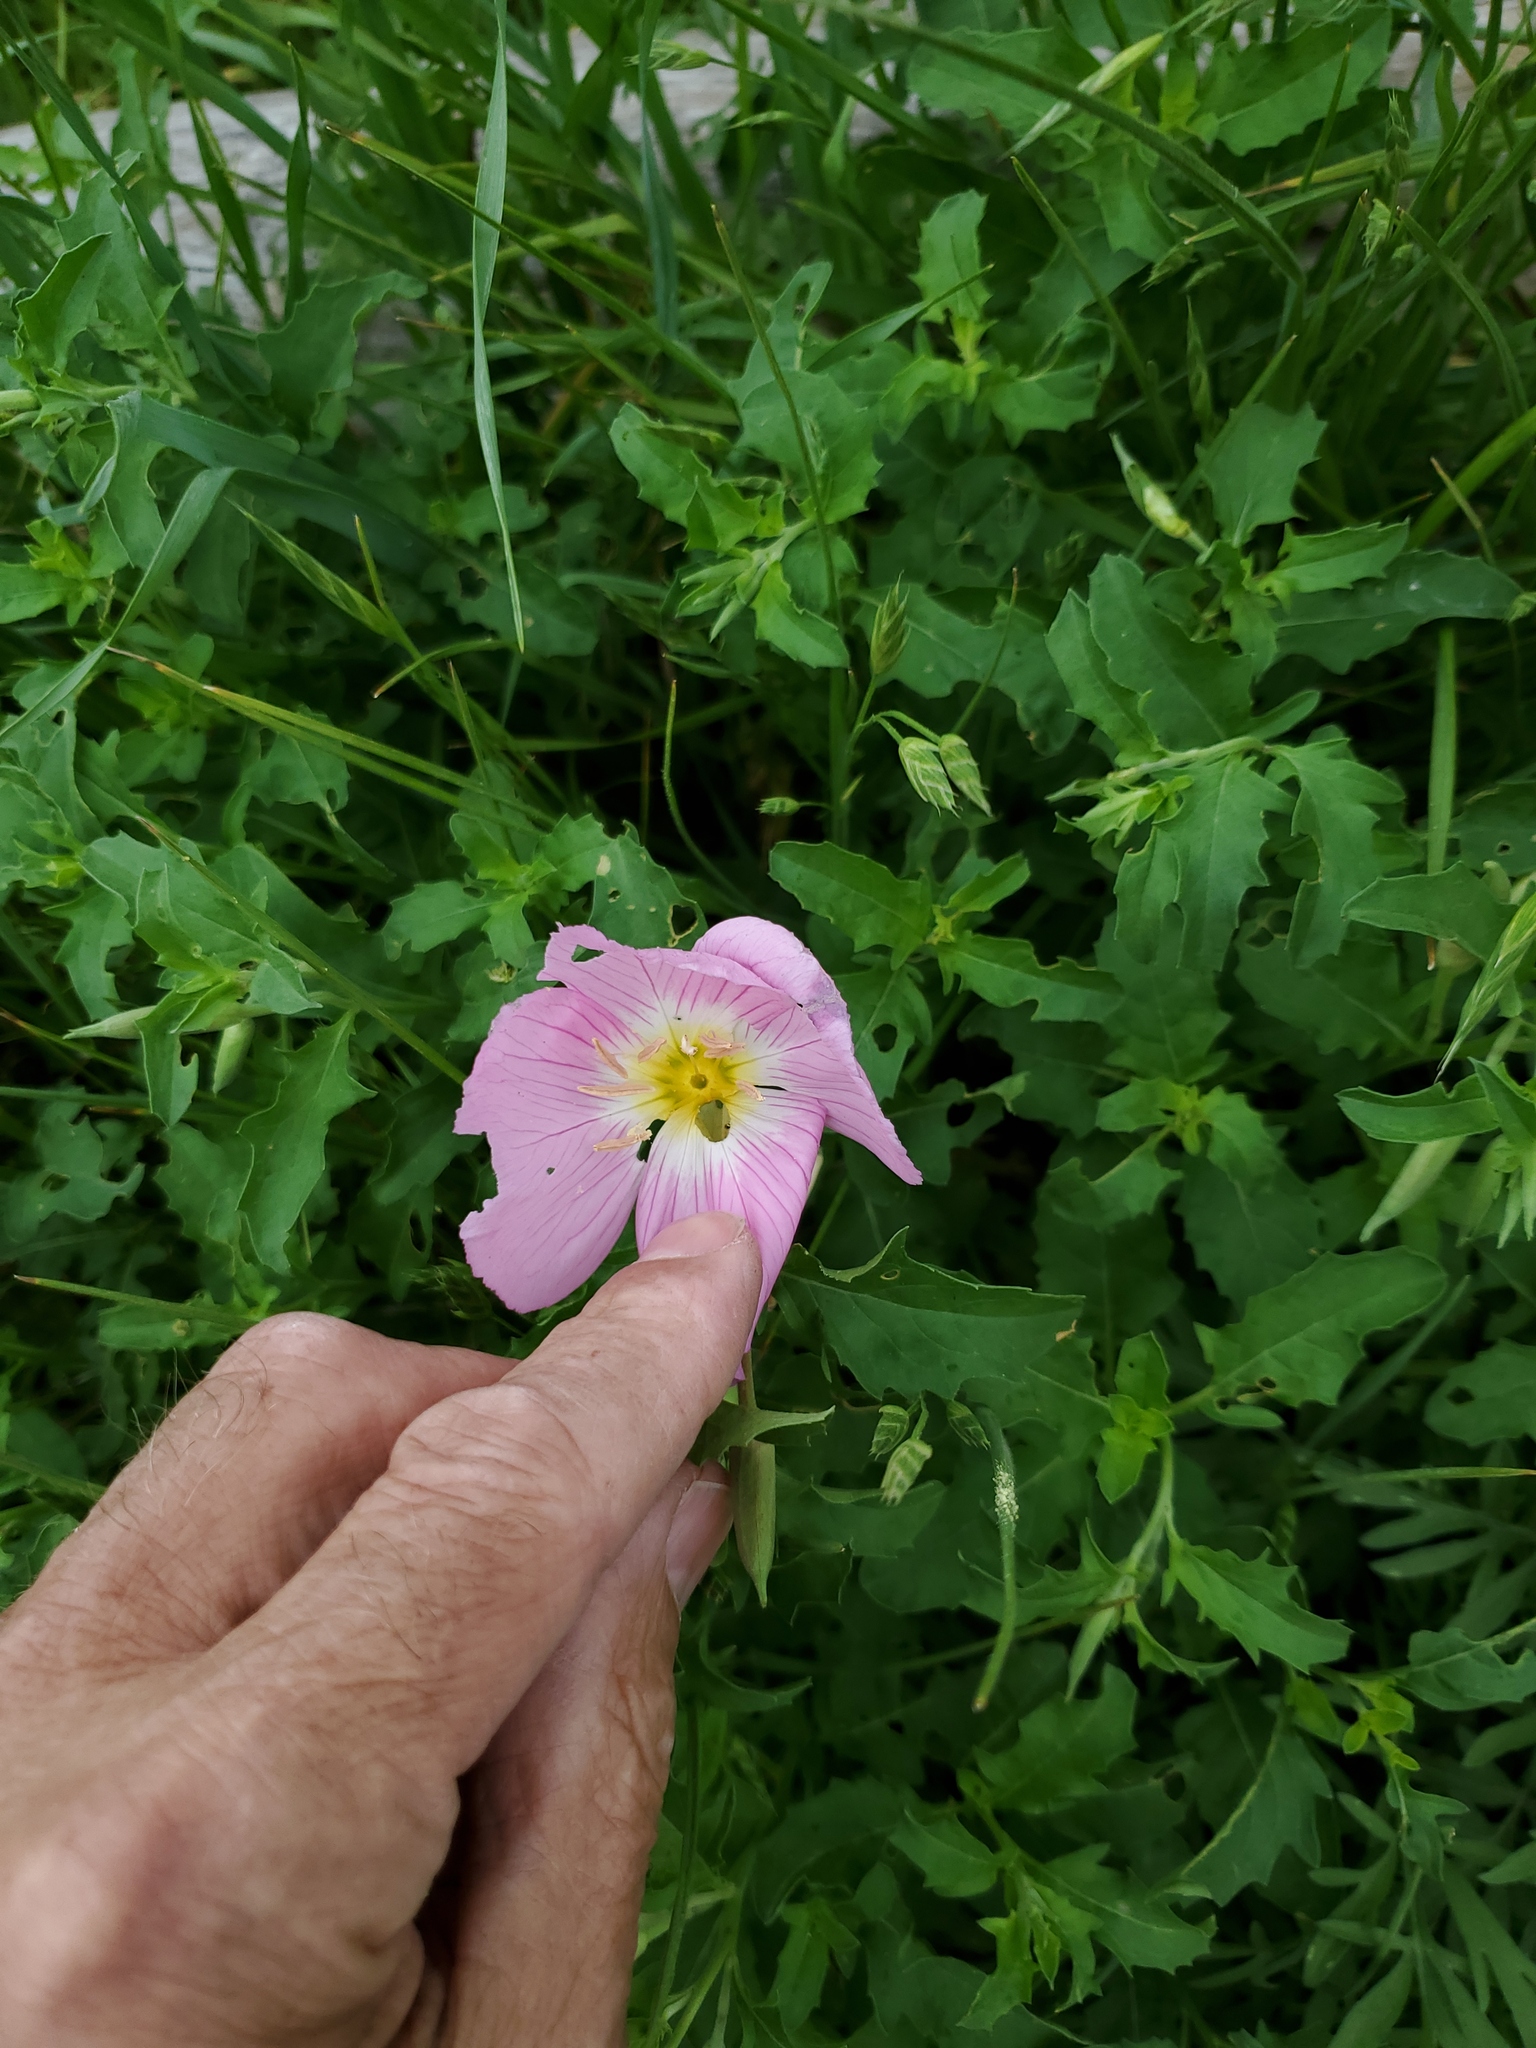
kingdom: Plantae
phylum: Tracheophyta
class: Magnoliopsida
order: Myrtales
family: Onagraceae
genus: Oenothera
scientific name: Oenothera speciosa
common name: White evening-primrose
